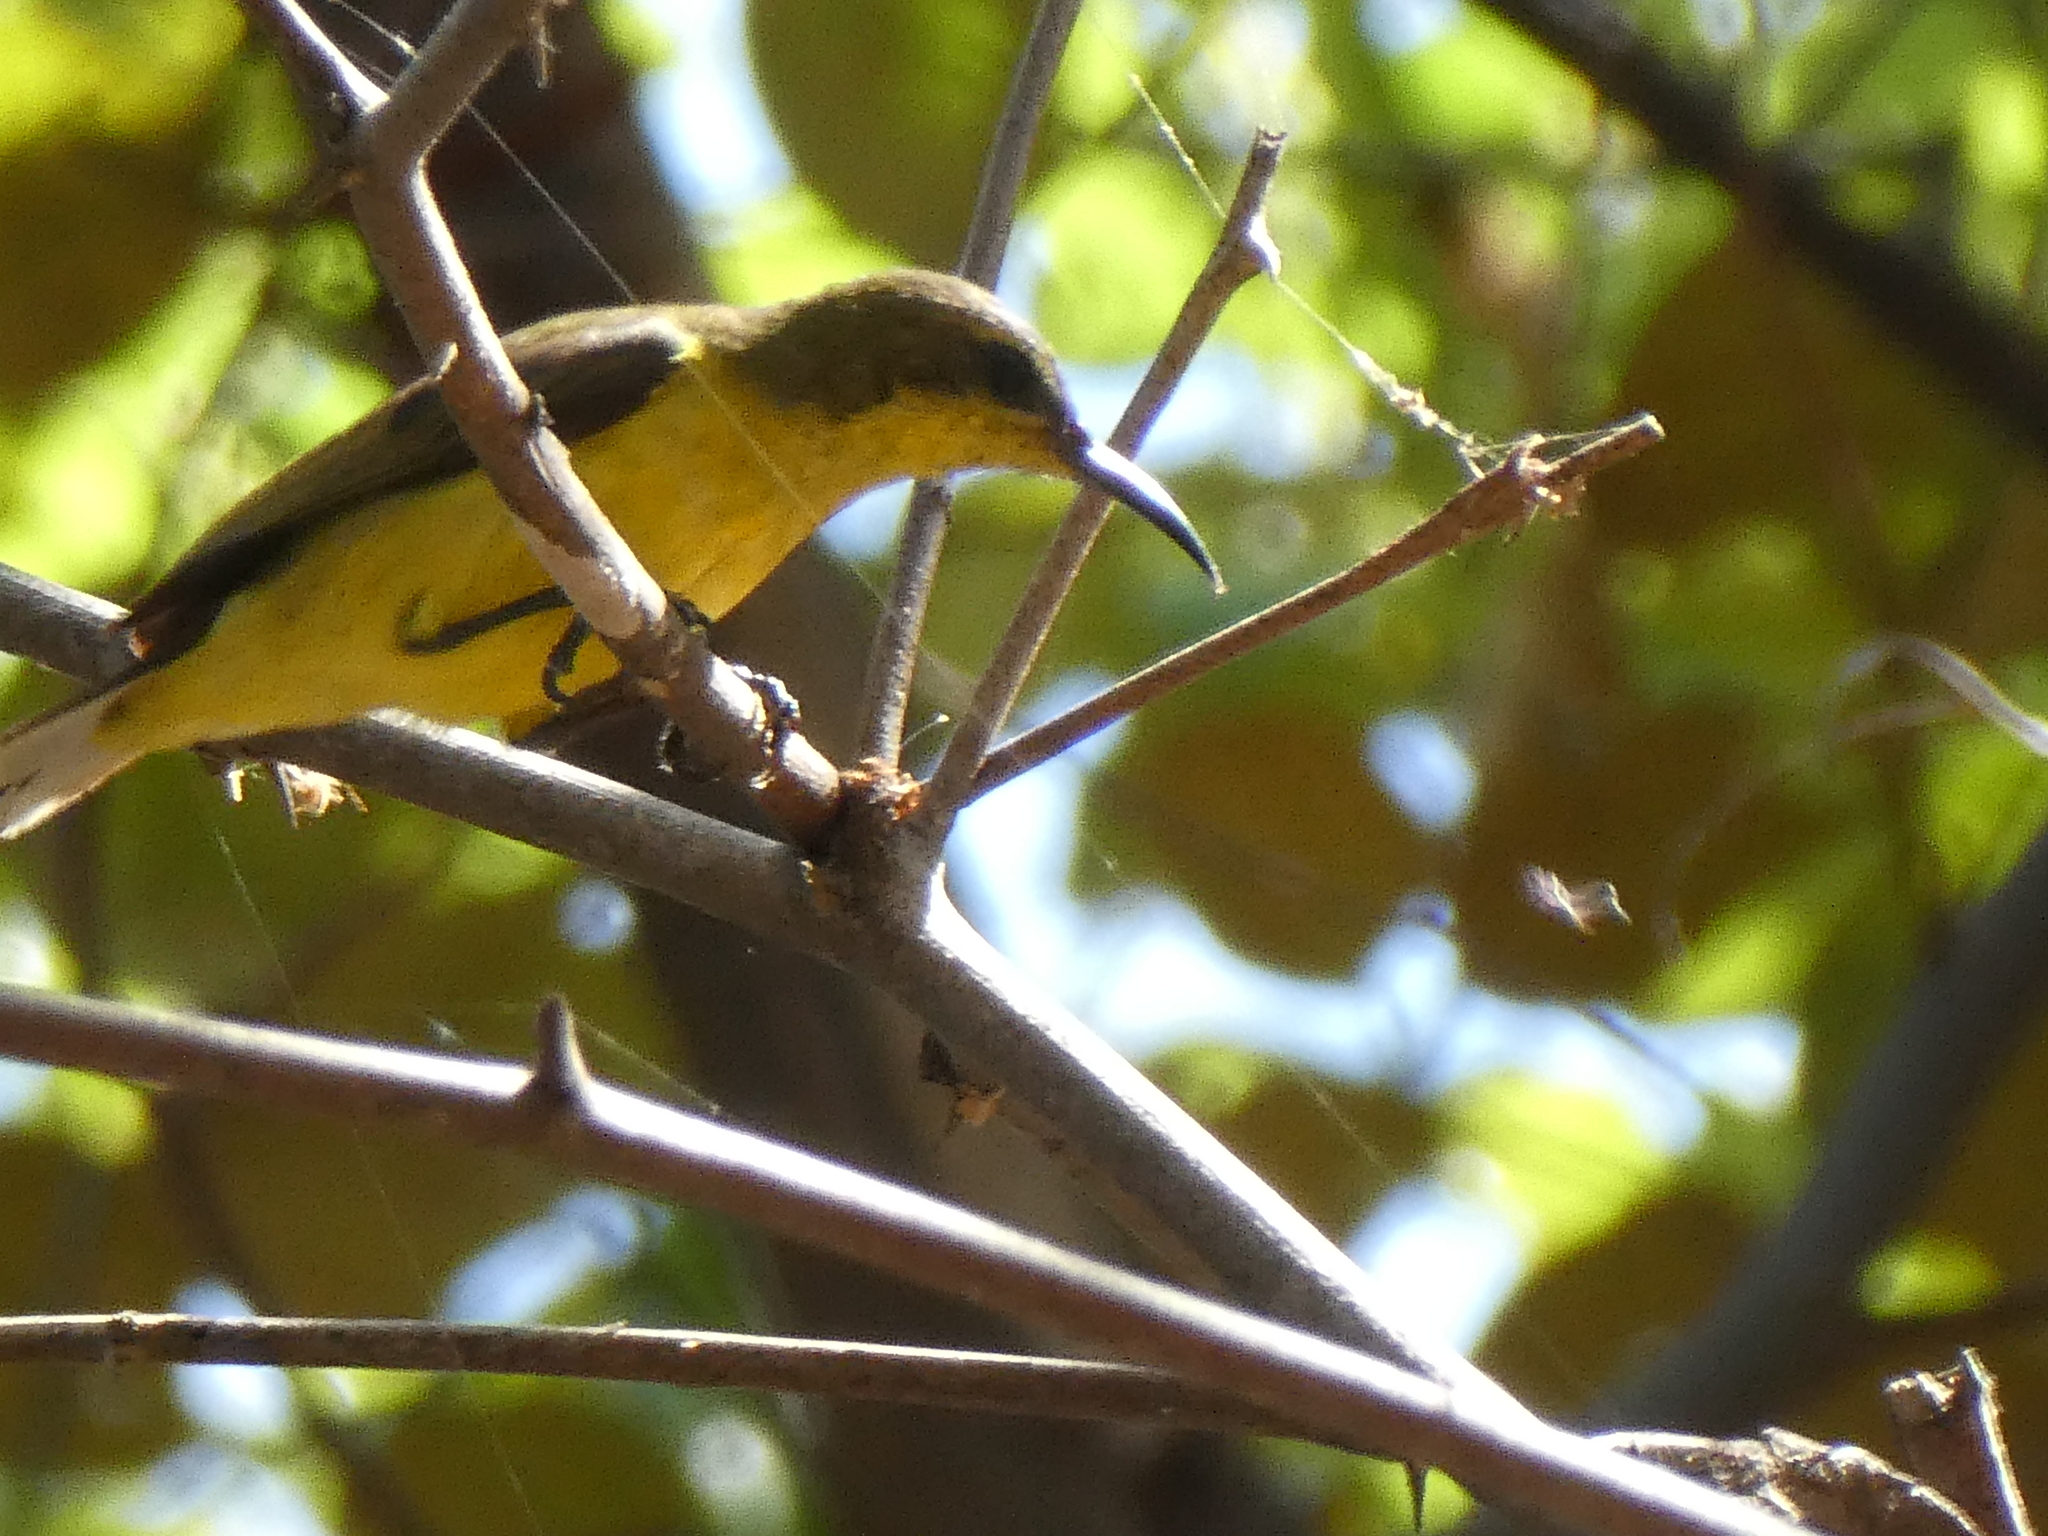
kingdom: Animalia
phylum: Chordata
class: Aves
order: Passeriformes
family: Nectariniidae
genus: Cinnyris
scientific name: Cinnyris
